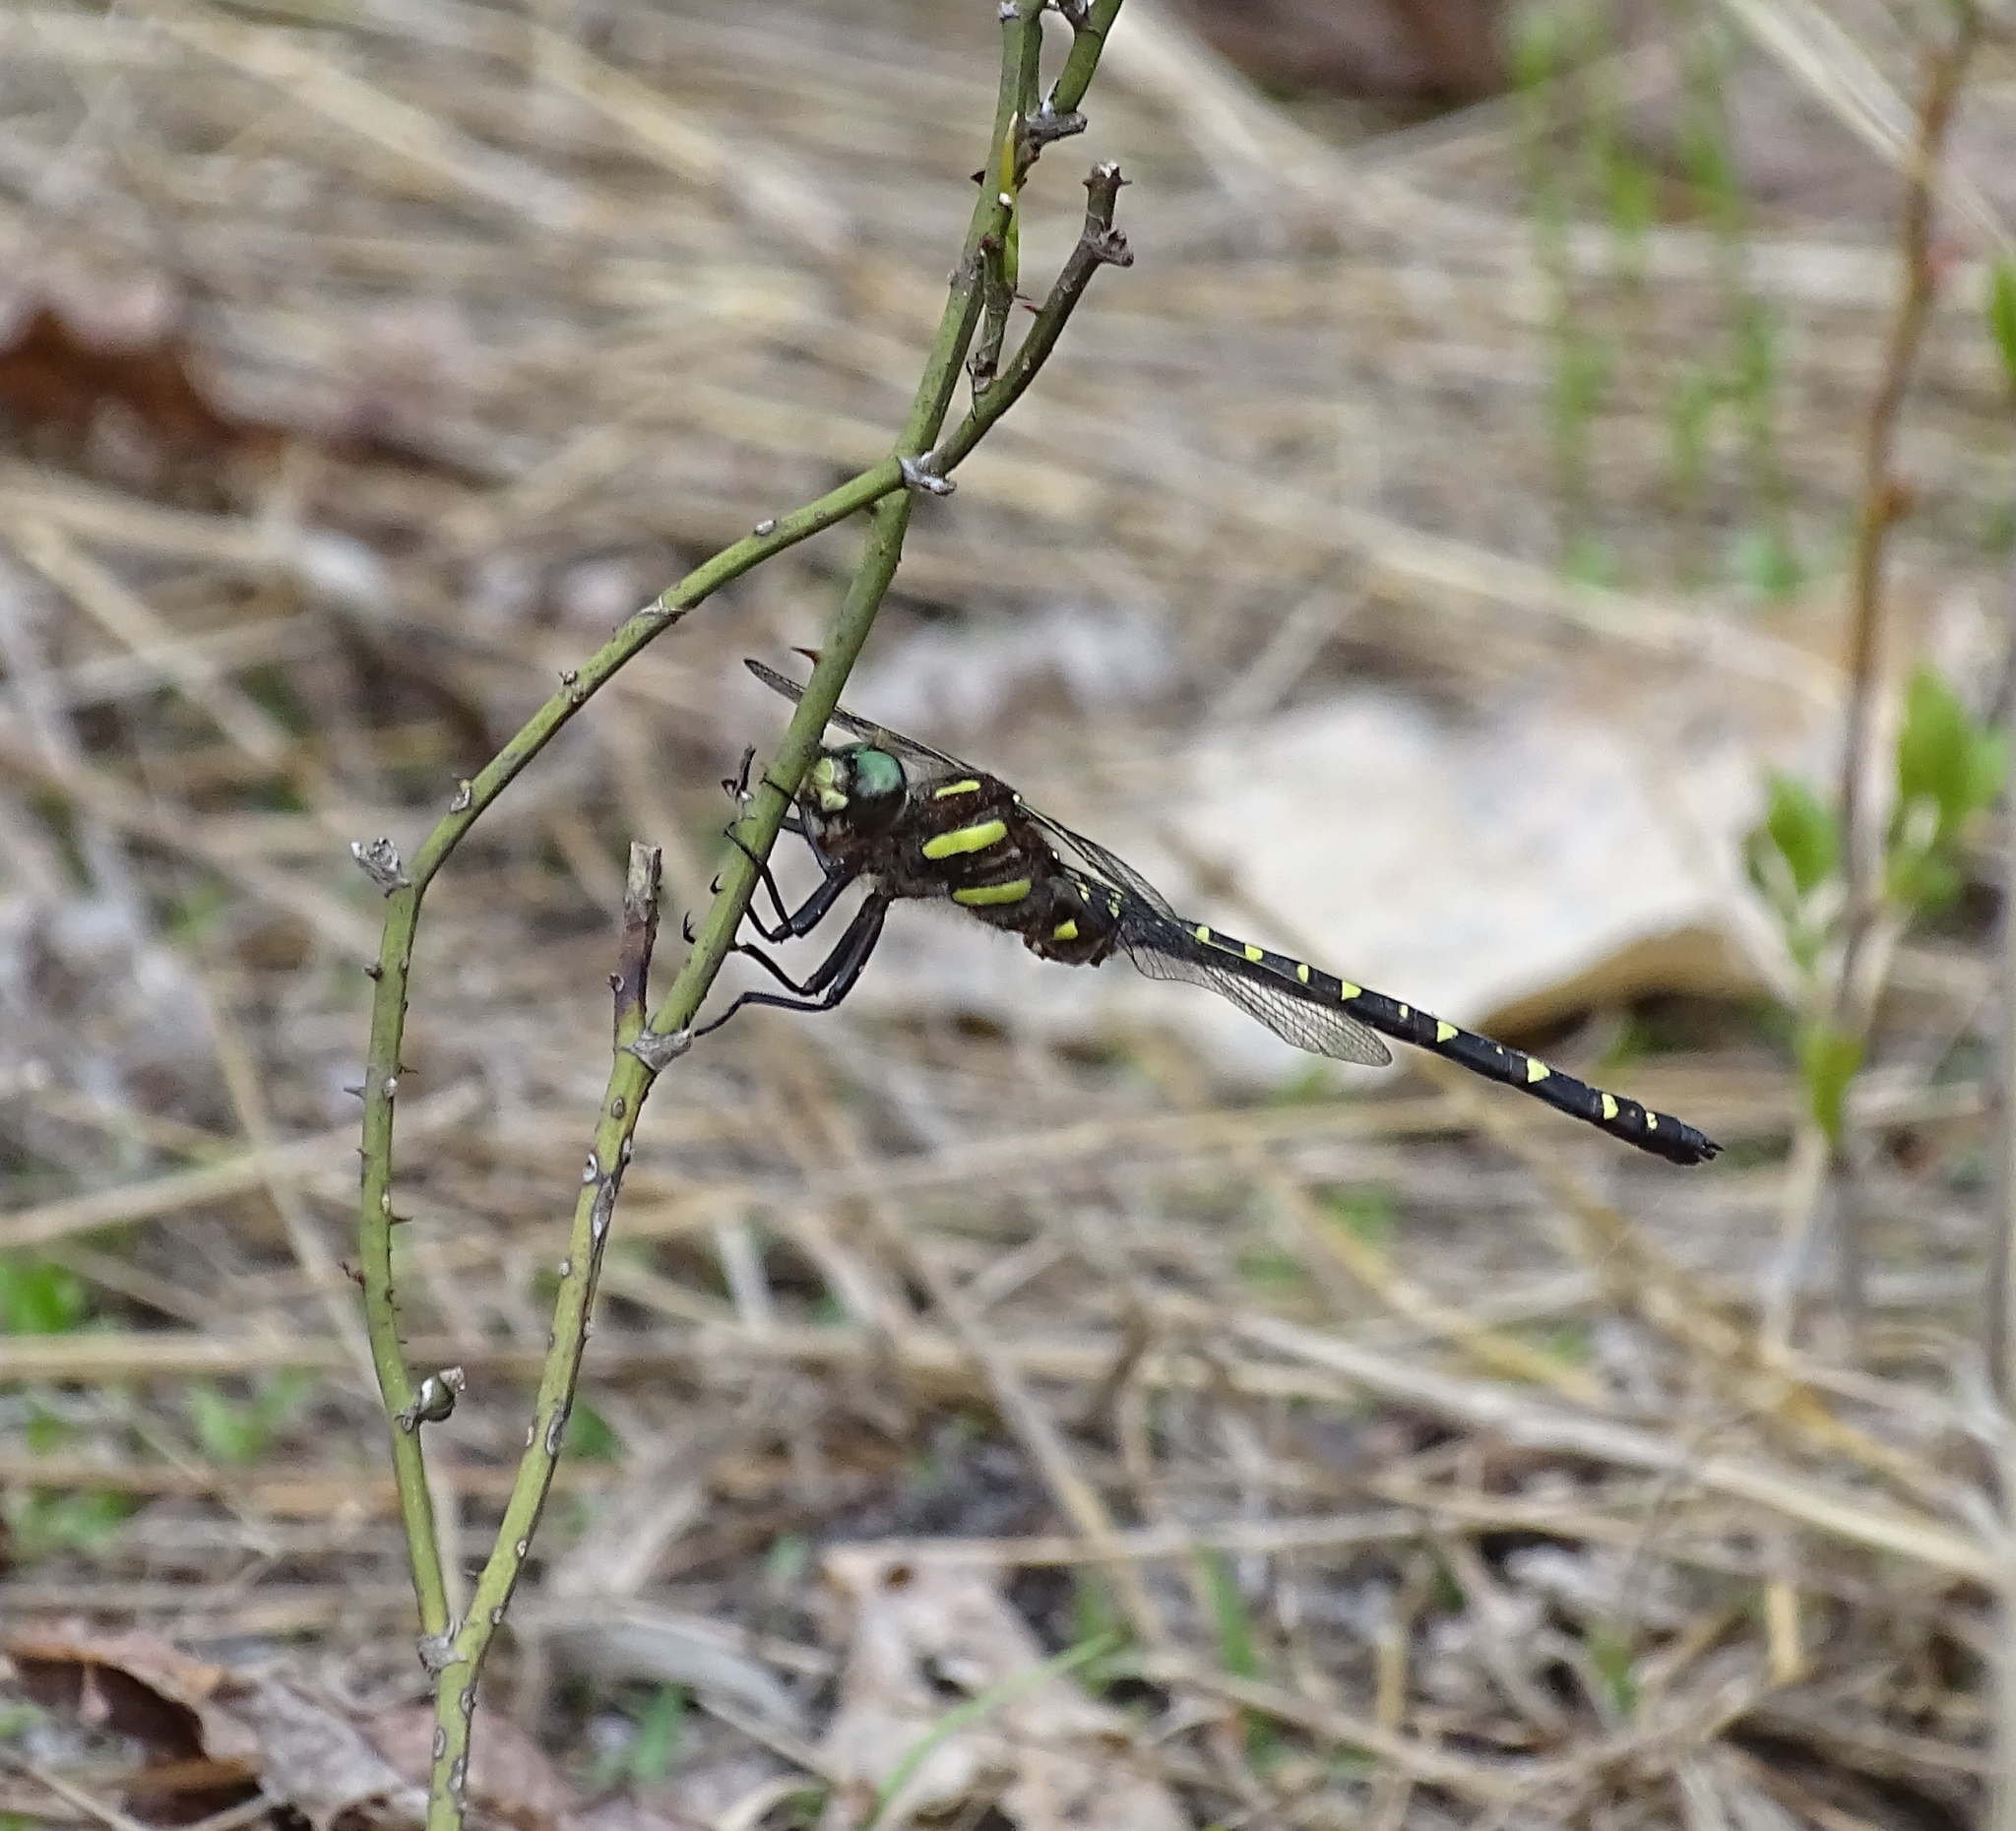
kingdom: Animalia
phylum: Arthropoda
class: Insecta
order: Odonata
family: Cordulegastridae
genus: Cordulegaster
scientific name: Cordulegaster maculata
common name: Twin-spotted spiketail
